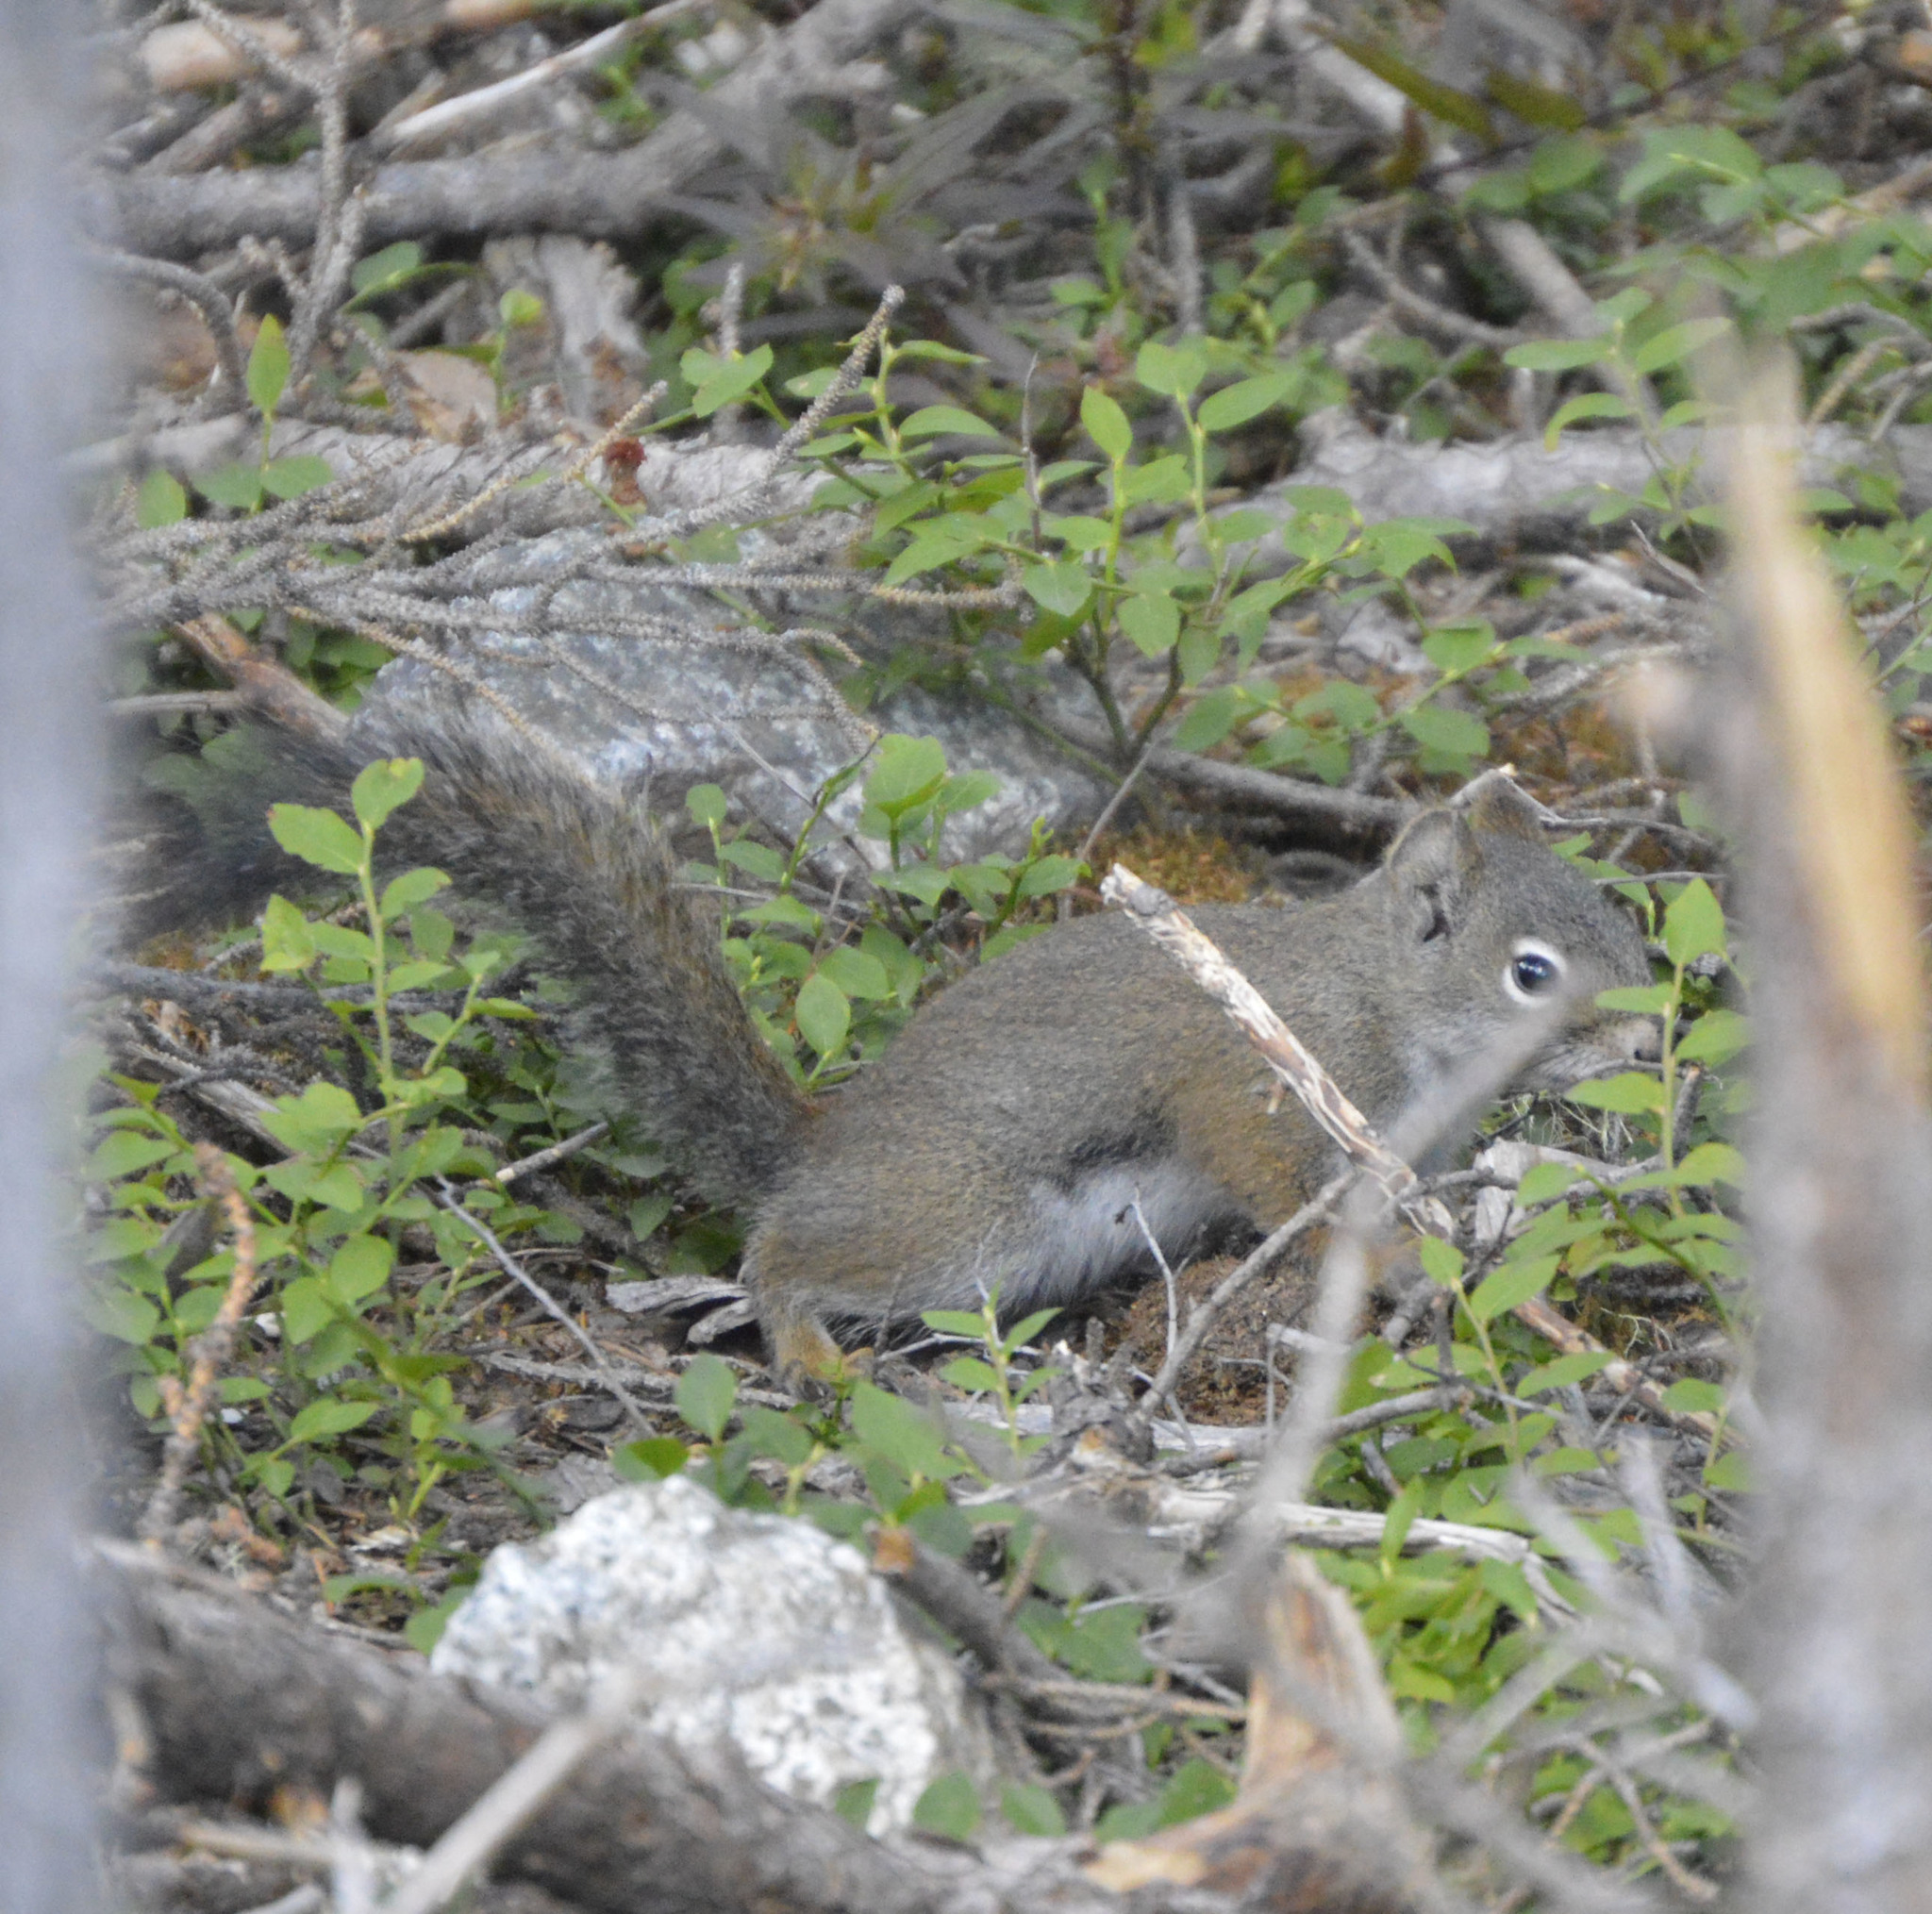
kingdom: Animalia
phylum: Chordata
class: Mammalia
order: Rodentia
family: Sciuridae
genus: Tamiasciurus
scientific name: Tamiasciurus hudsonicus
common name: Red squirrel
